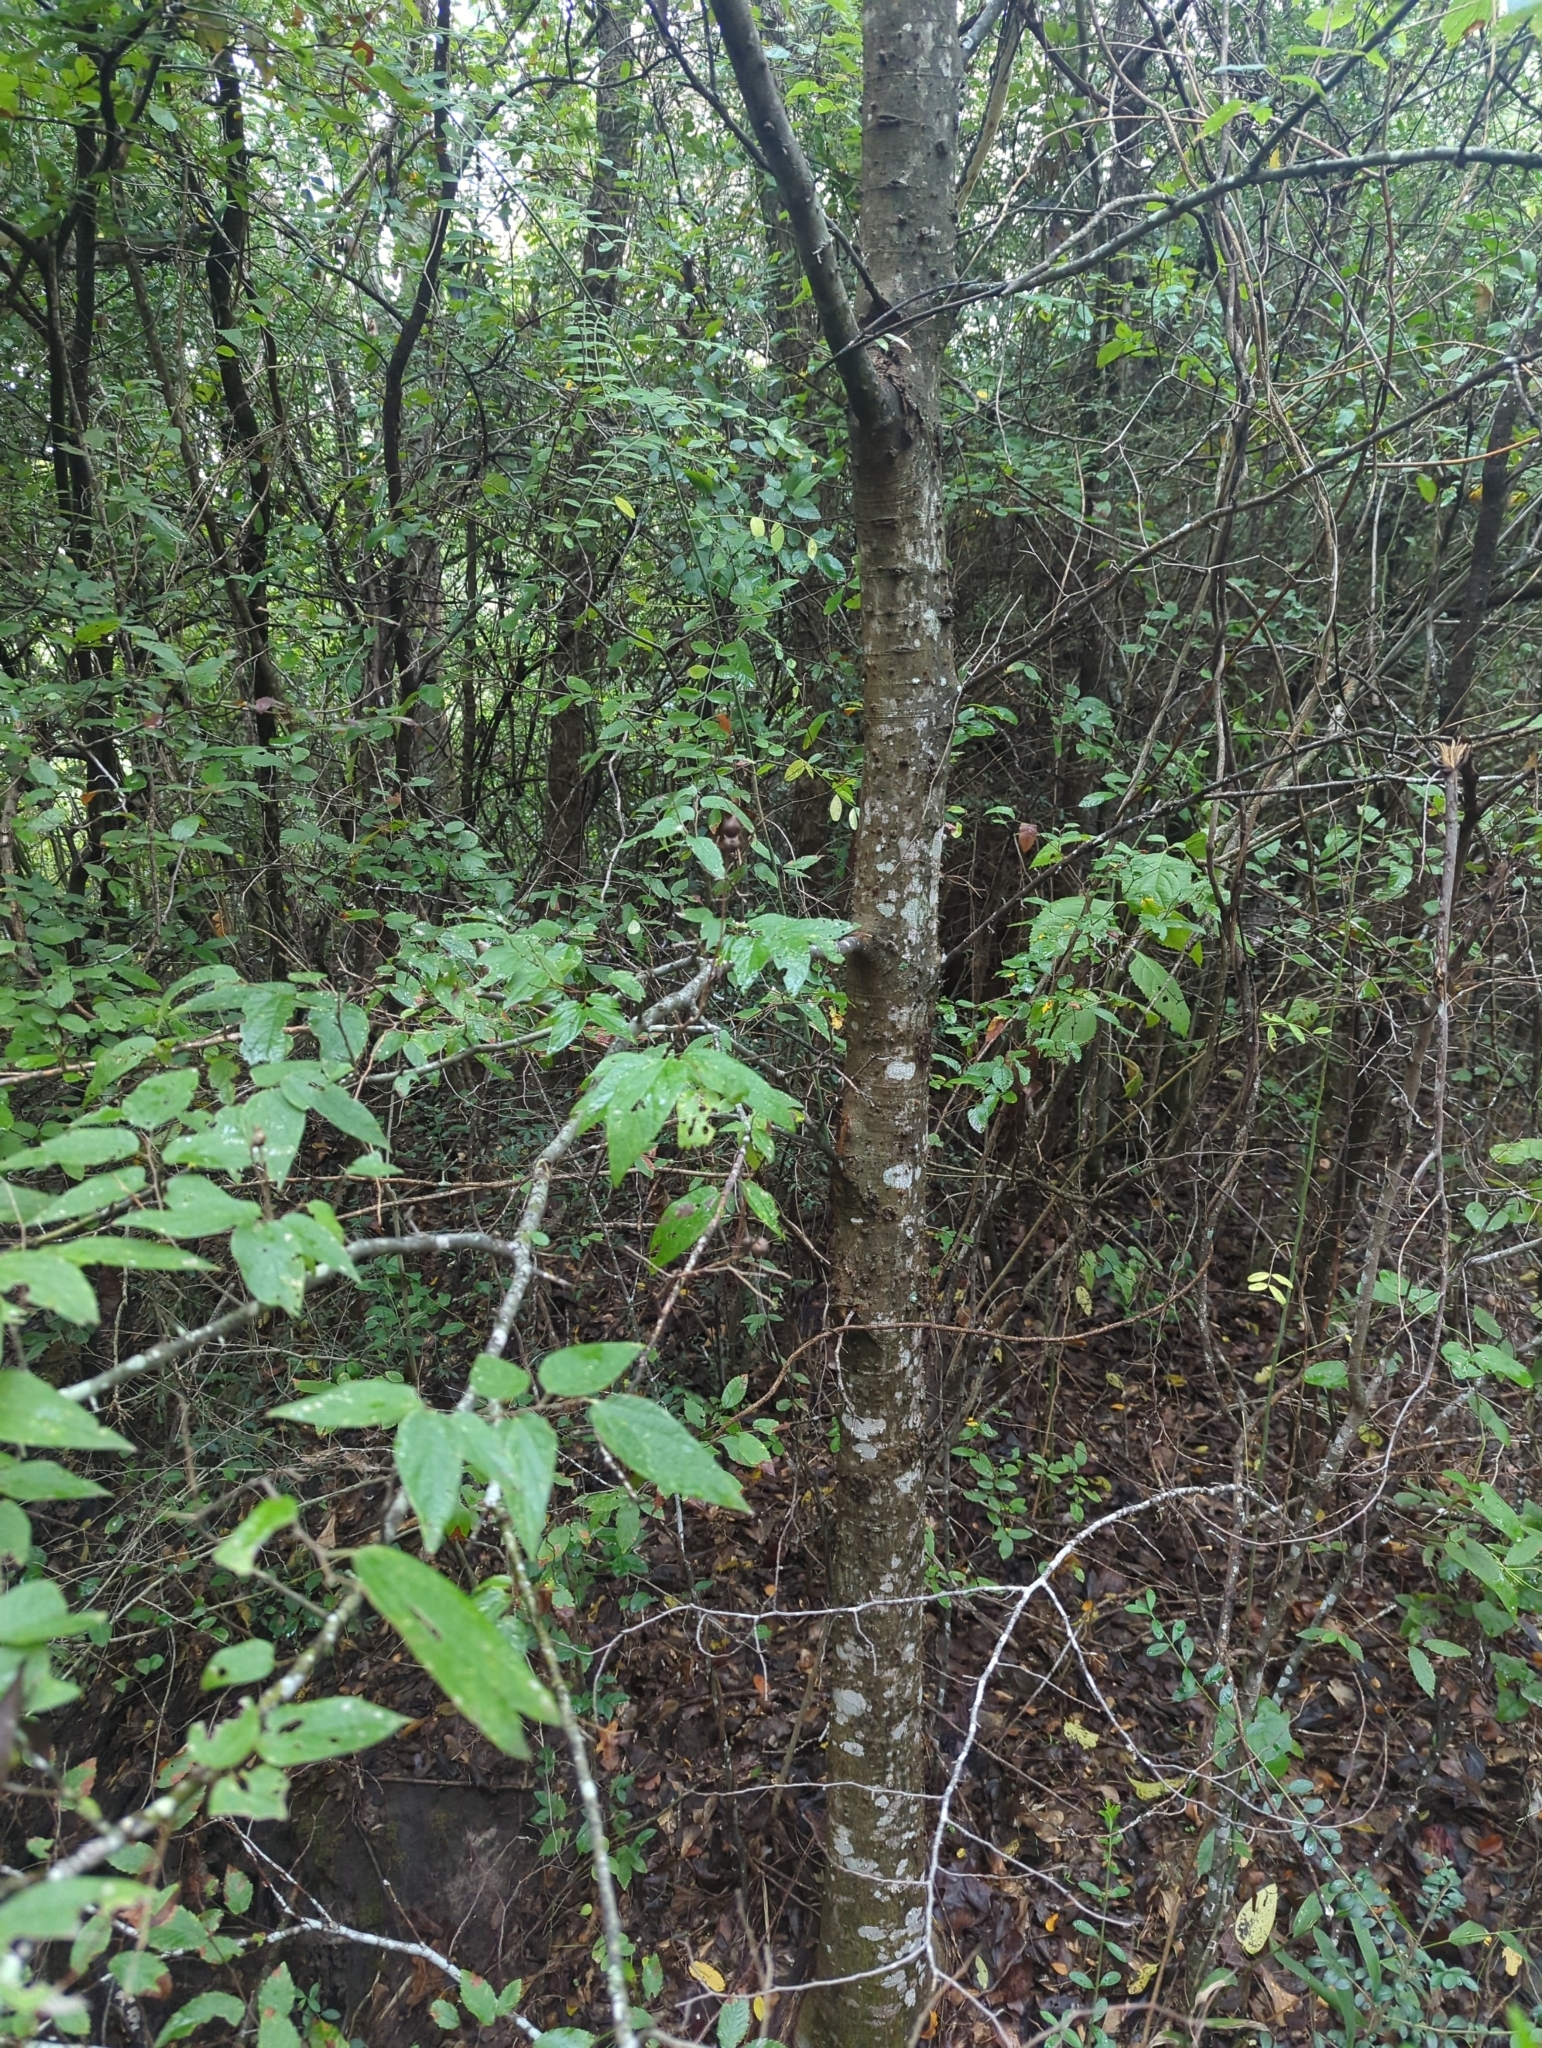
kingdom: Plantae
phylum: Tracheophyta
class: Magnoliopsida
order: Rosales
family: Cannabaceae
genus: Celtis
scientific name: Celtis laevigata
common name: Sugarberry
